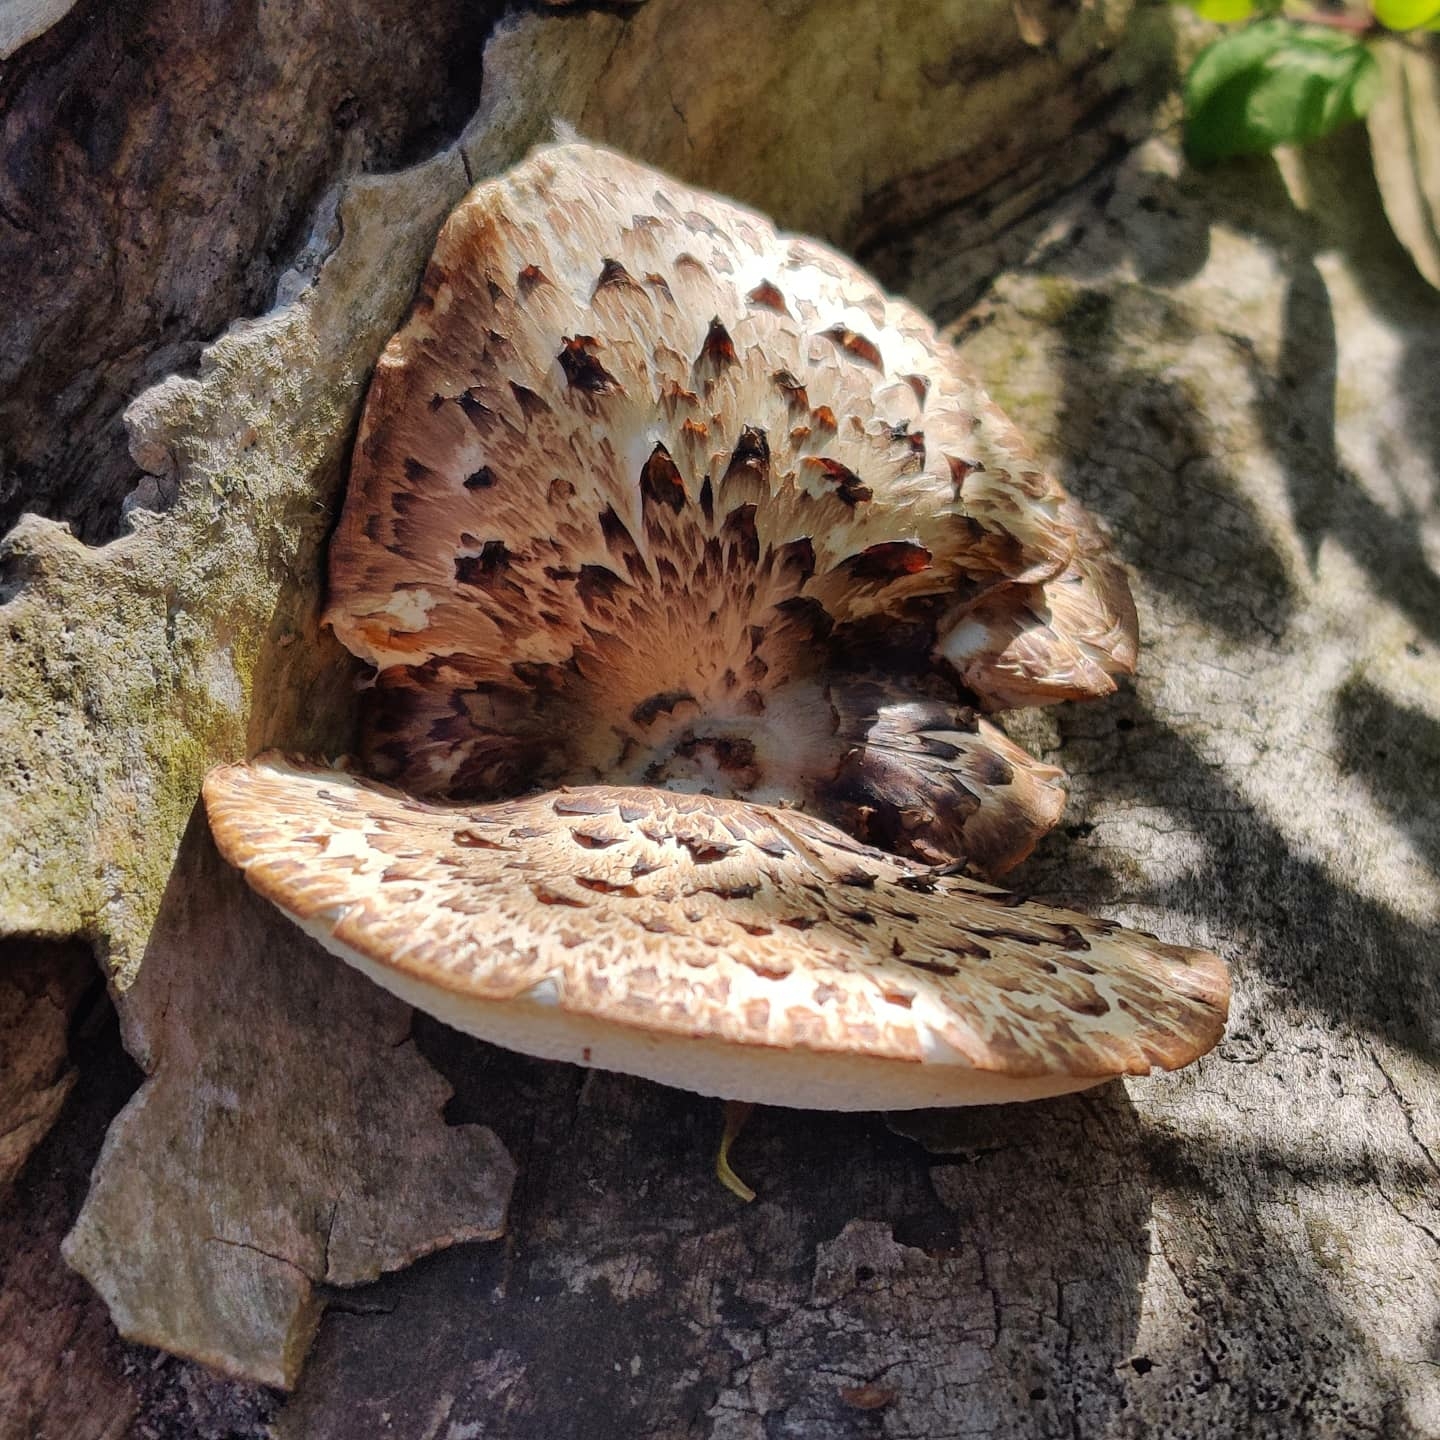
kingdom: Fungi
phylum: Basidiomycota
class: Agaricomycetes
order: Polyporales
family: Polyporaceae
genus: Cerioporus
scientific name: Cerioporus squamosus
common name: Dryad's saddle
